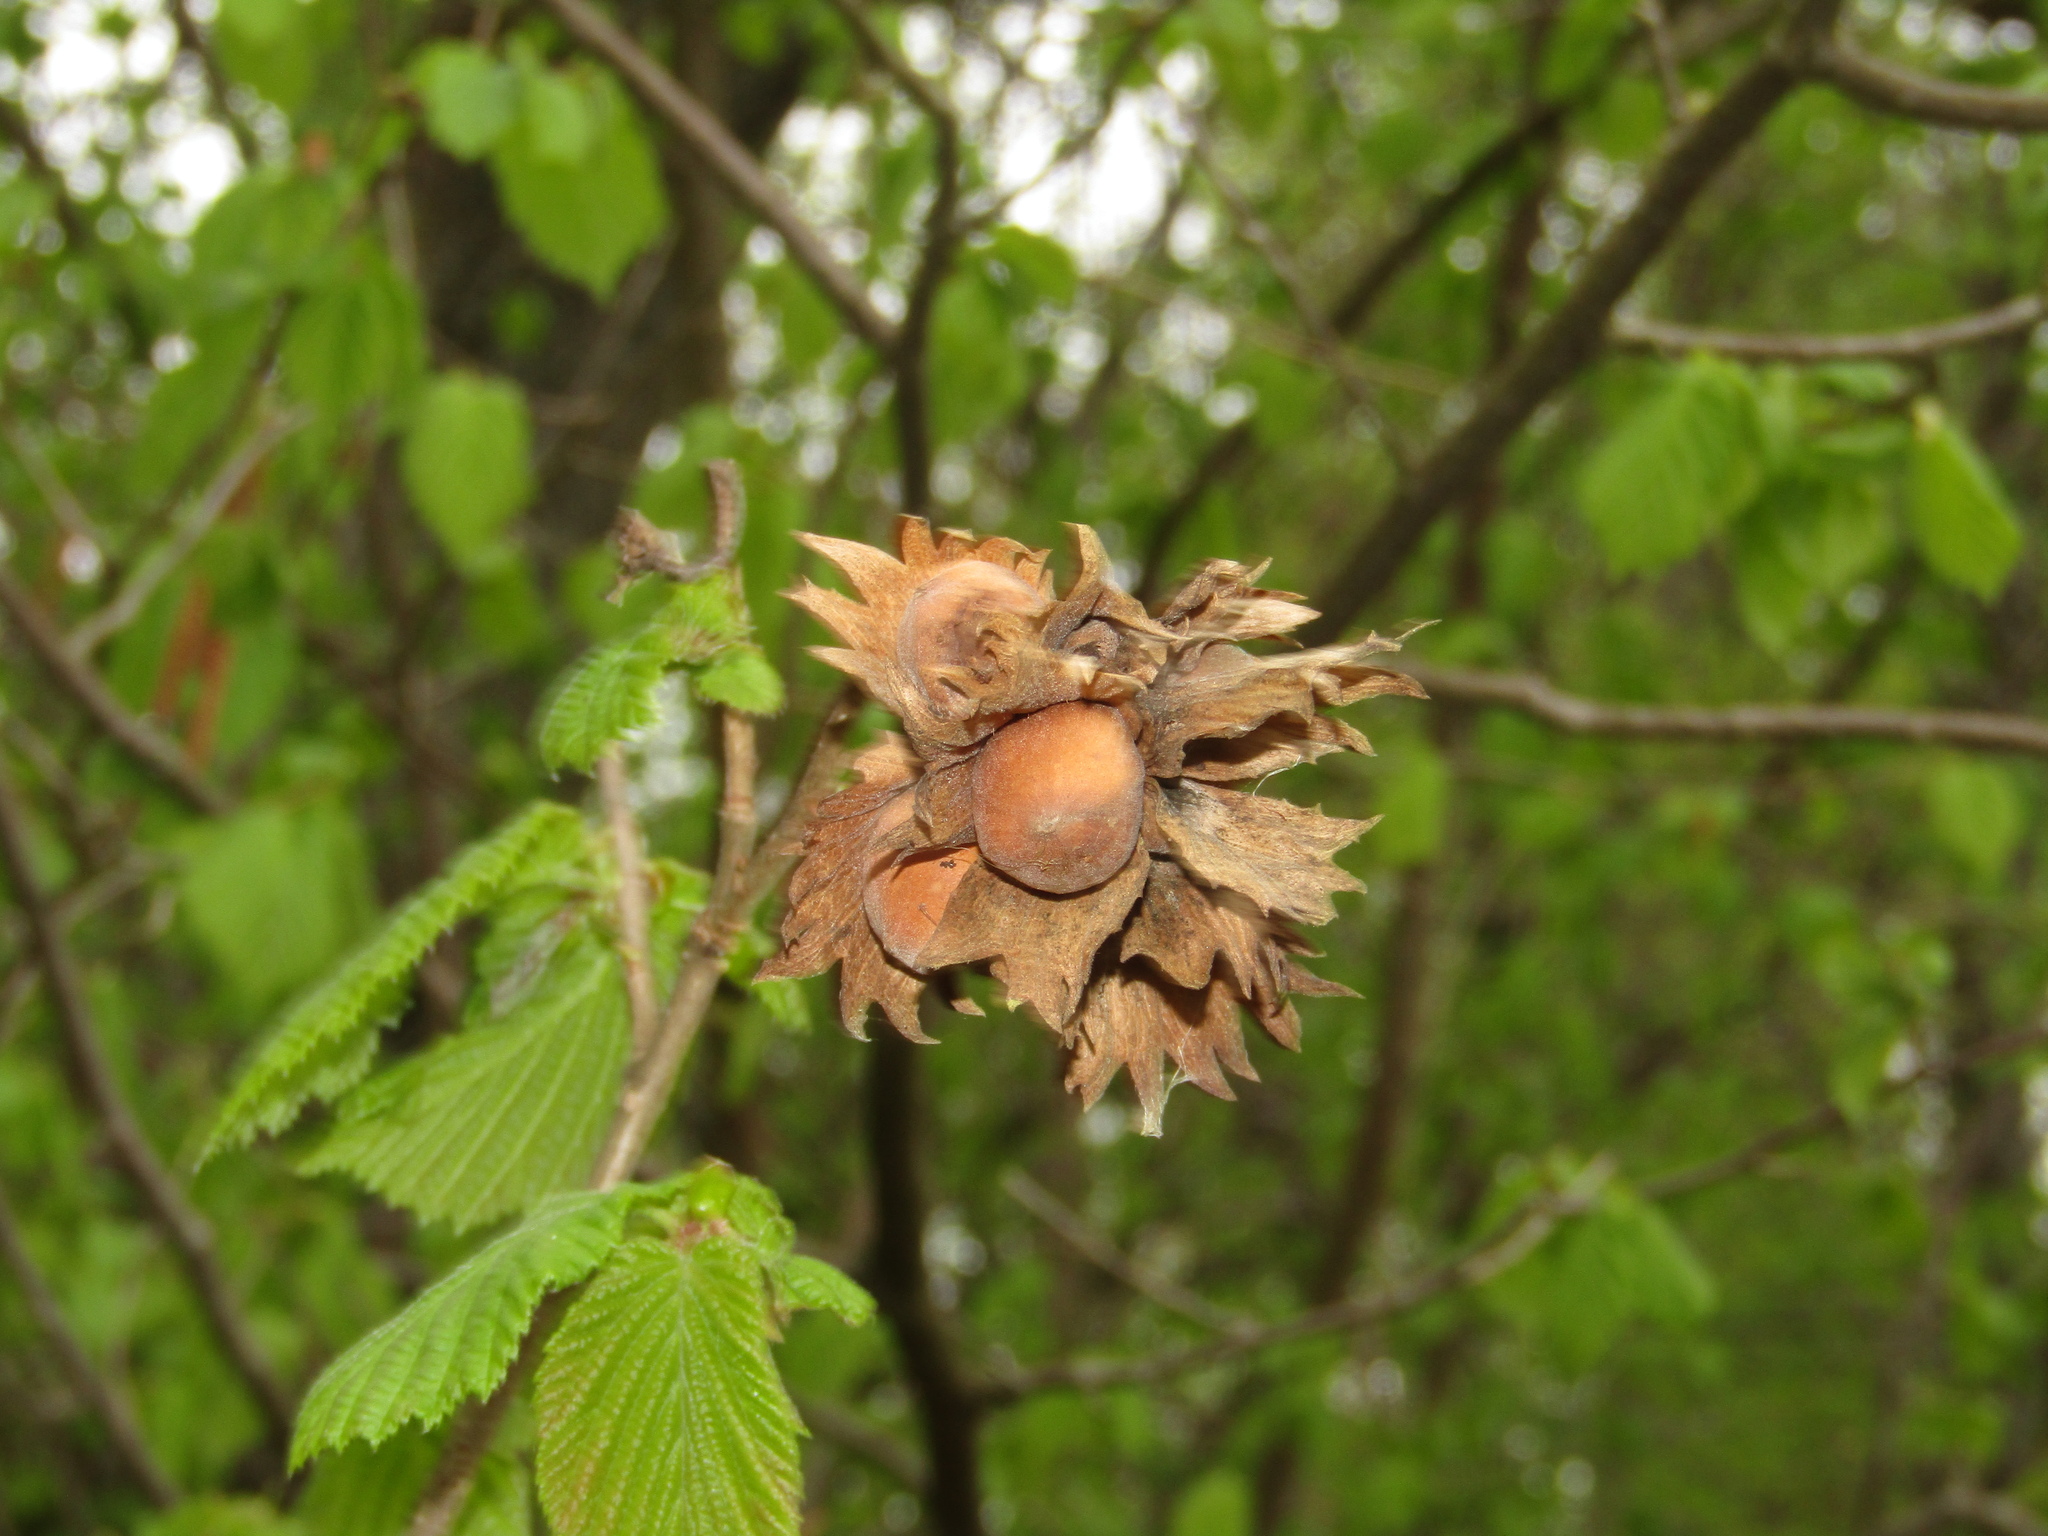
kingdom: Plantae
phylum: Tracheophyta
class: Magnoliopsida
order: Fagales
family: Betulaceae
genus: Corylus
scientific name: Corylus avellana
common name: European hazel
